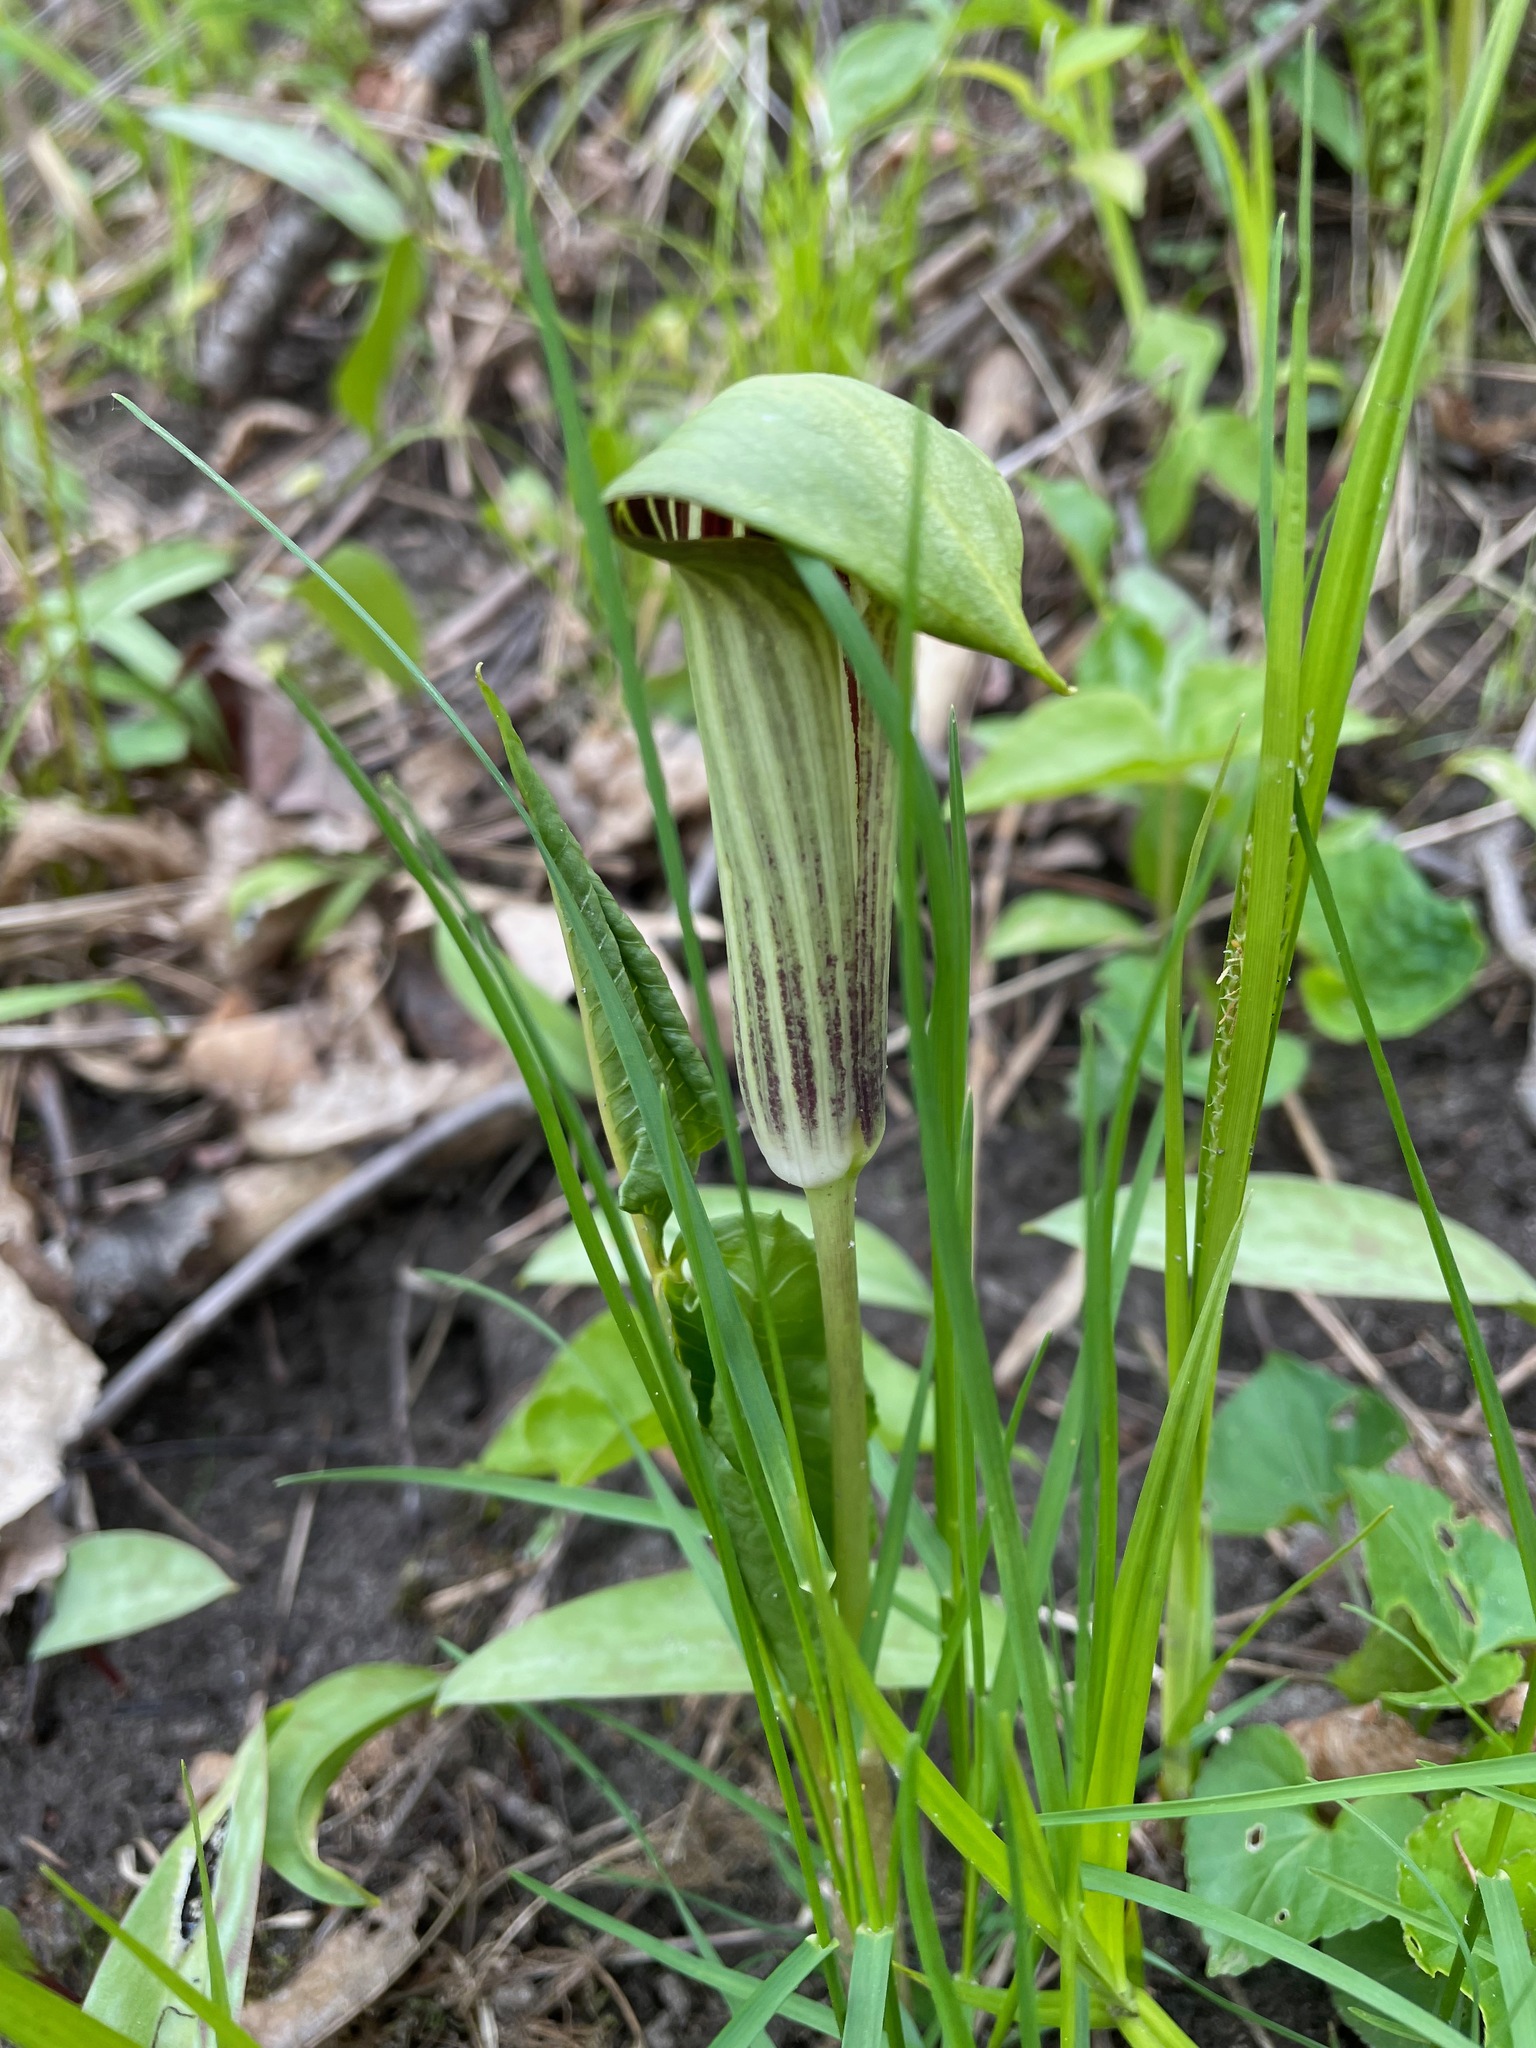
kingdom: Plantae
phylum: Tracheophyta
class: Liliopsida
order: Alismatales
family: Araceae
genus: Arisaema
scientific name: Arisaema triphyllum
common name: Jack-in-the-pulpit
